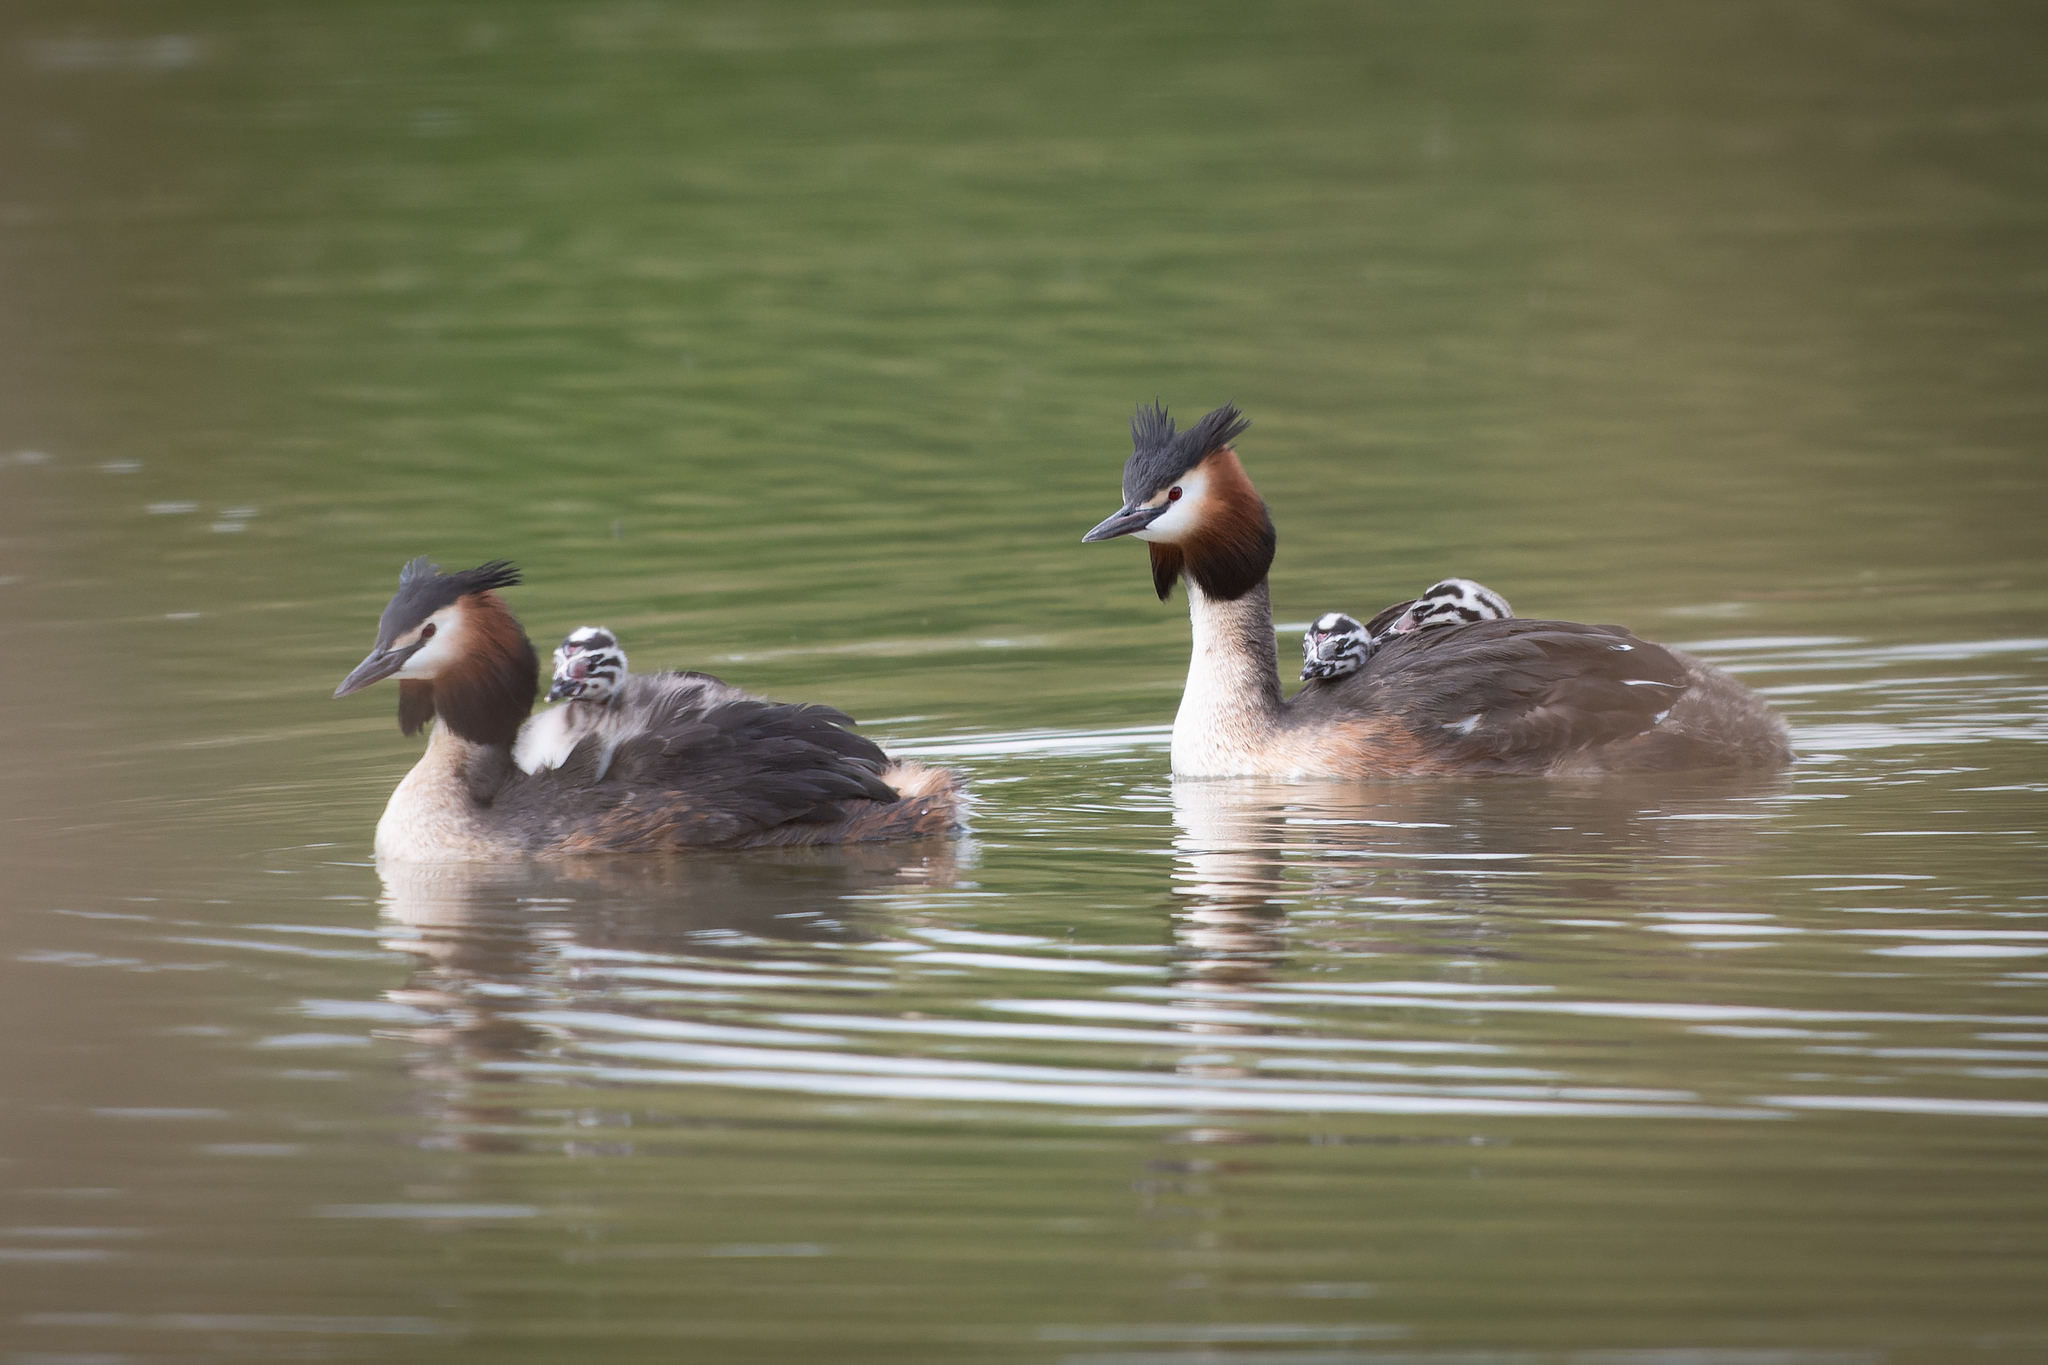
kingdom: Animalia
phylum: Chordata
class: Aves
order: Podicipediformes
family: Podicipedidae
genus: Podiceps
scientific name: Podiceps cristatus
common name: Great crested grebe
